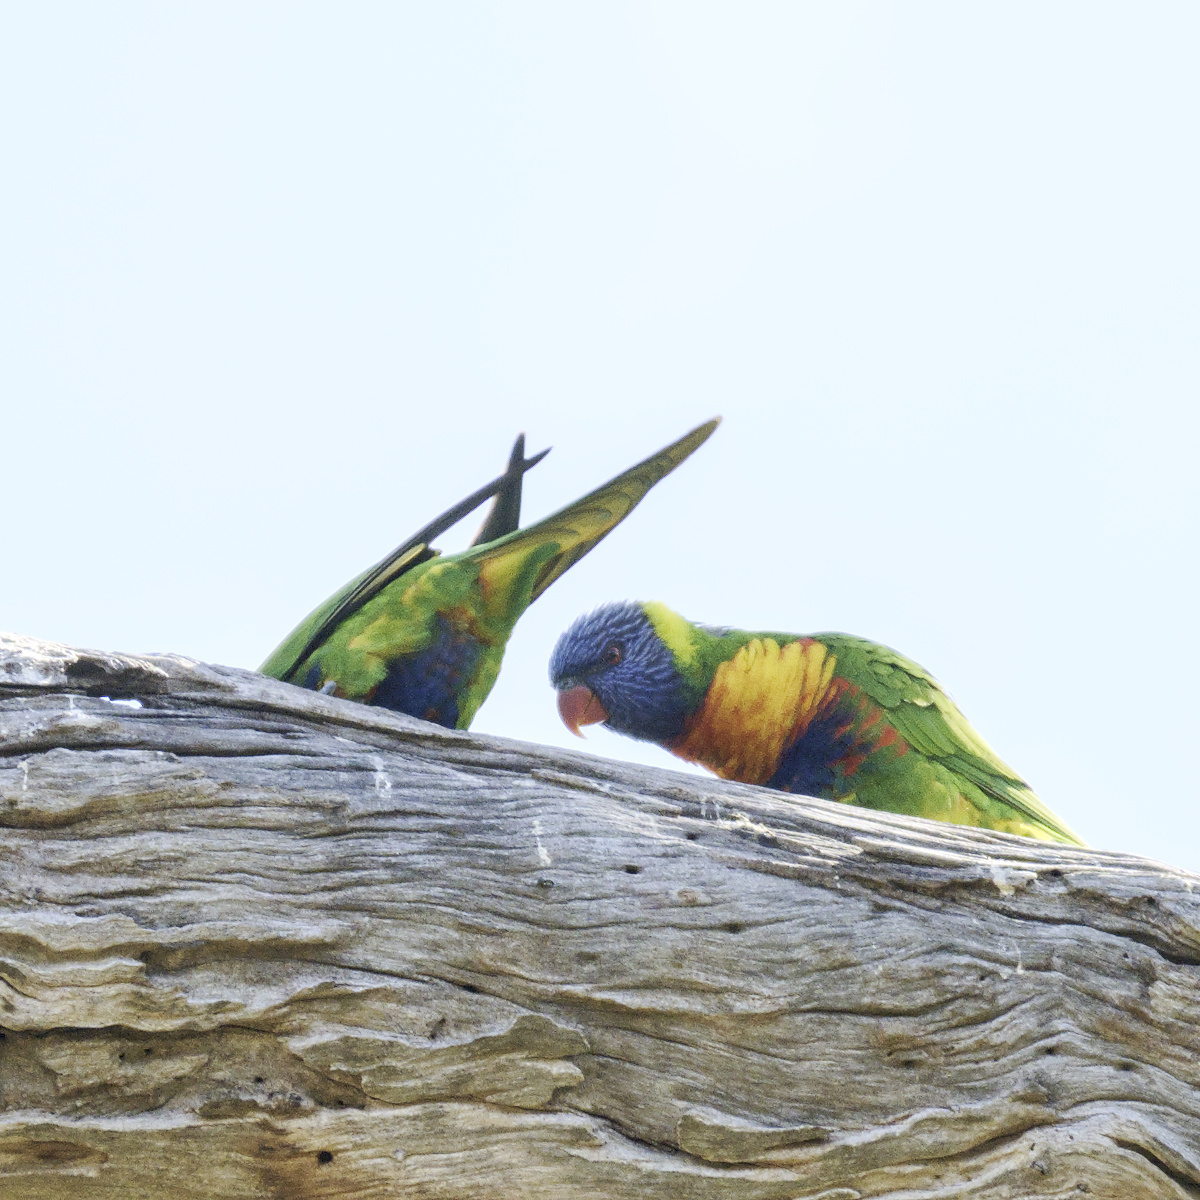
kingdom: Animalia
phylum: Chordata
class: Aves
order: Psittaciformes
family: Psittacidae
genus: Trichoglossus
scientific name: Trichoglossus haematodus
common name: Coconut lorikeet
